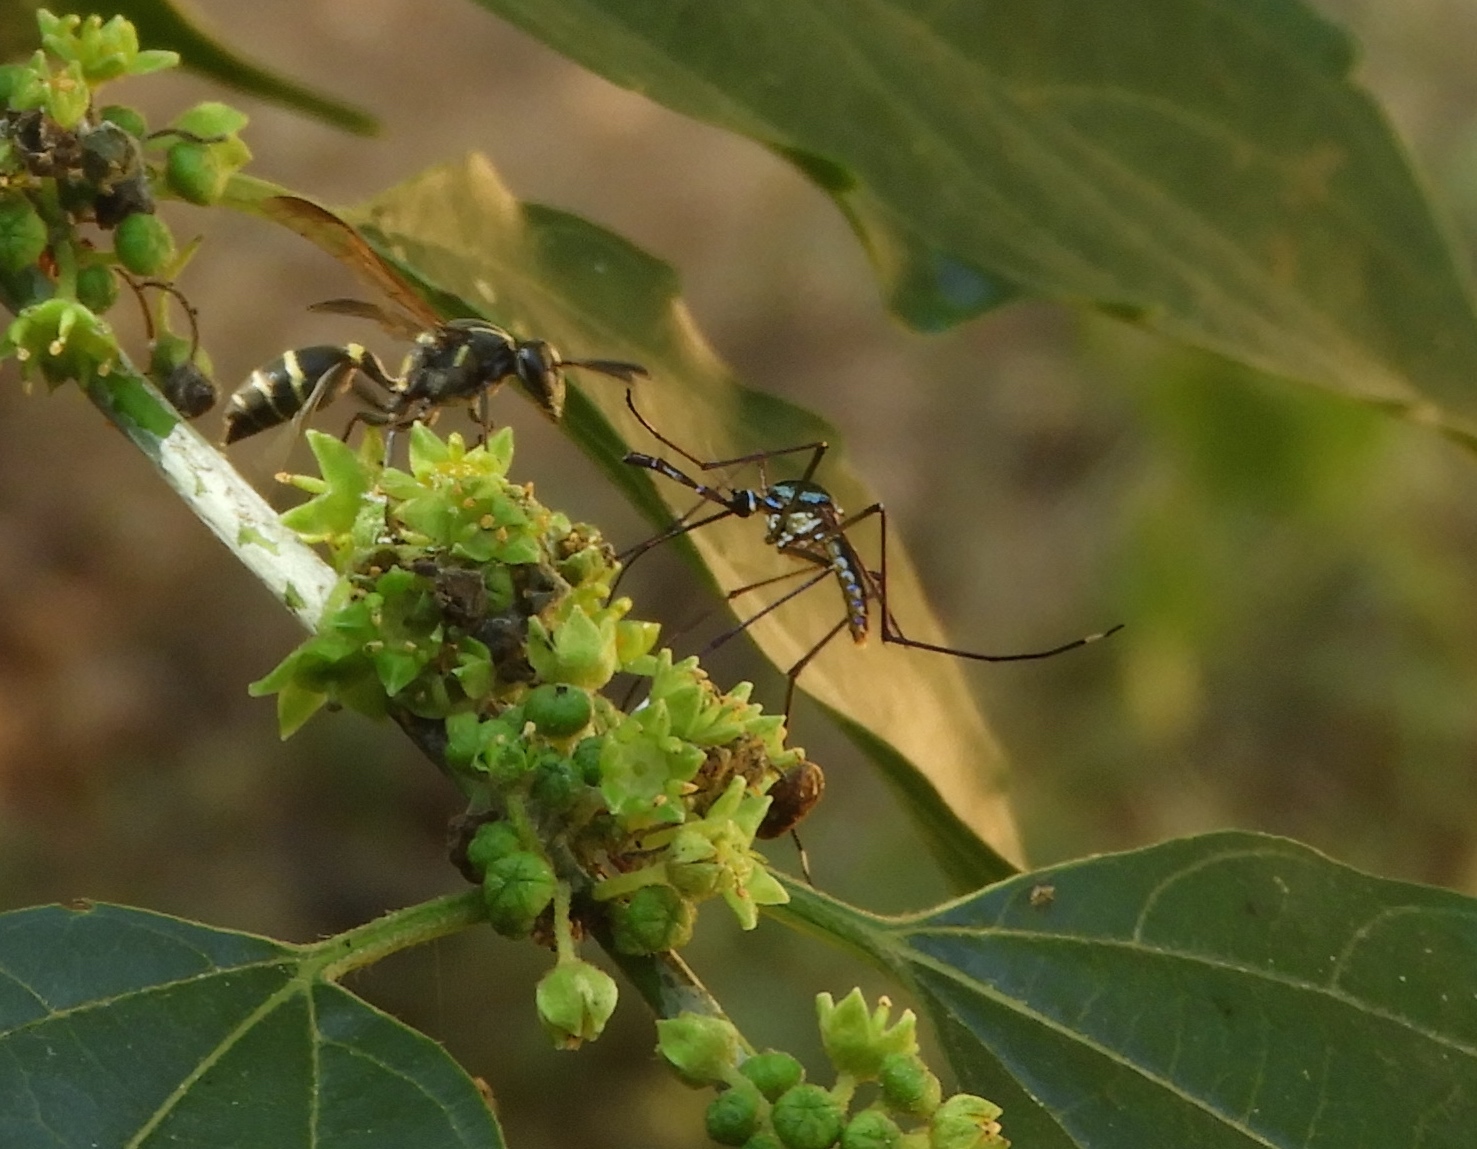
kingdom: Animalia
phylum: Arthropoda
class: Insecta
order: Diptera
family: Culicidae
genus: Toxorhynchites
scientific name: Toxorhynchites
